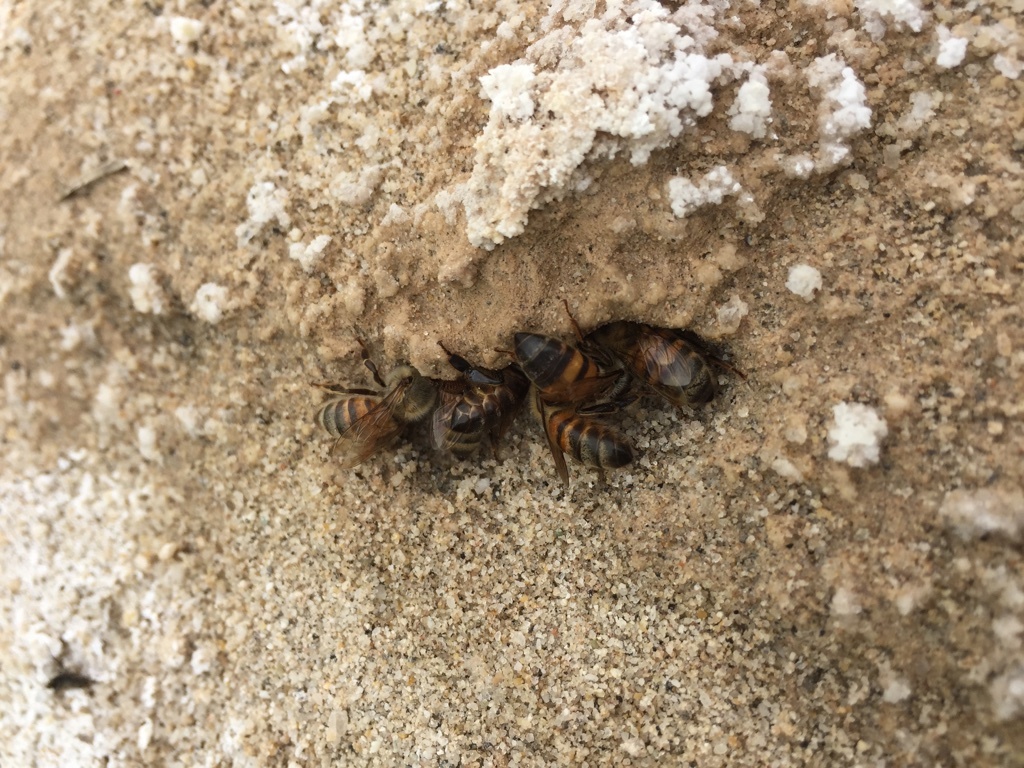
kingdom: Animalia
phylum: Arthropoda
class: Insecta
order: Hymenoptera
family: Apidae
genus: Apis
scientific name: Apis mellifera
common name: Honey bee
